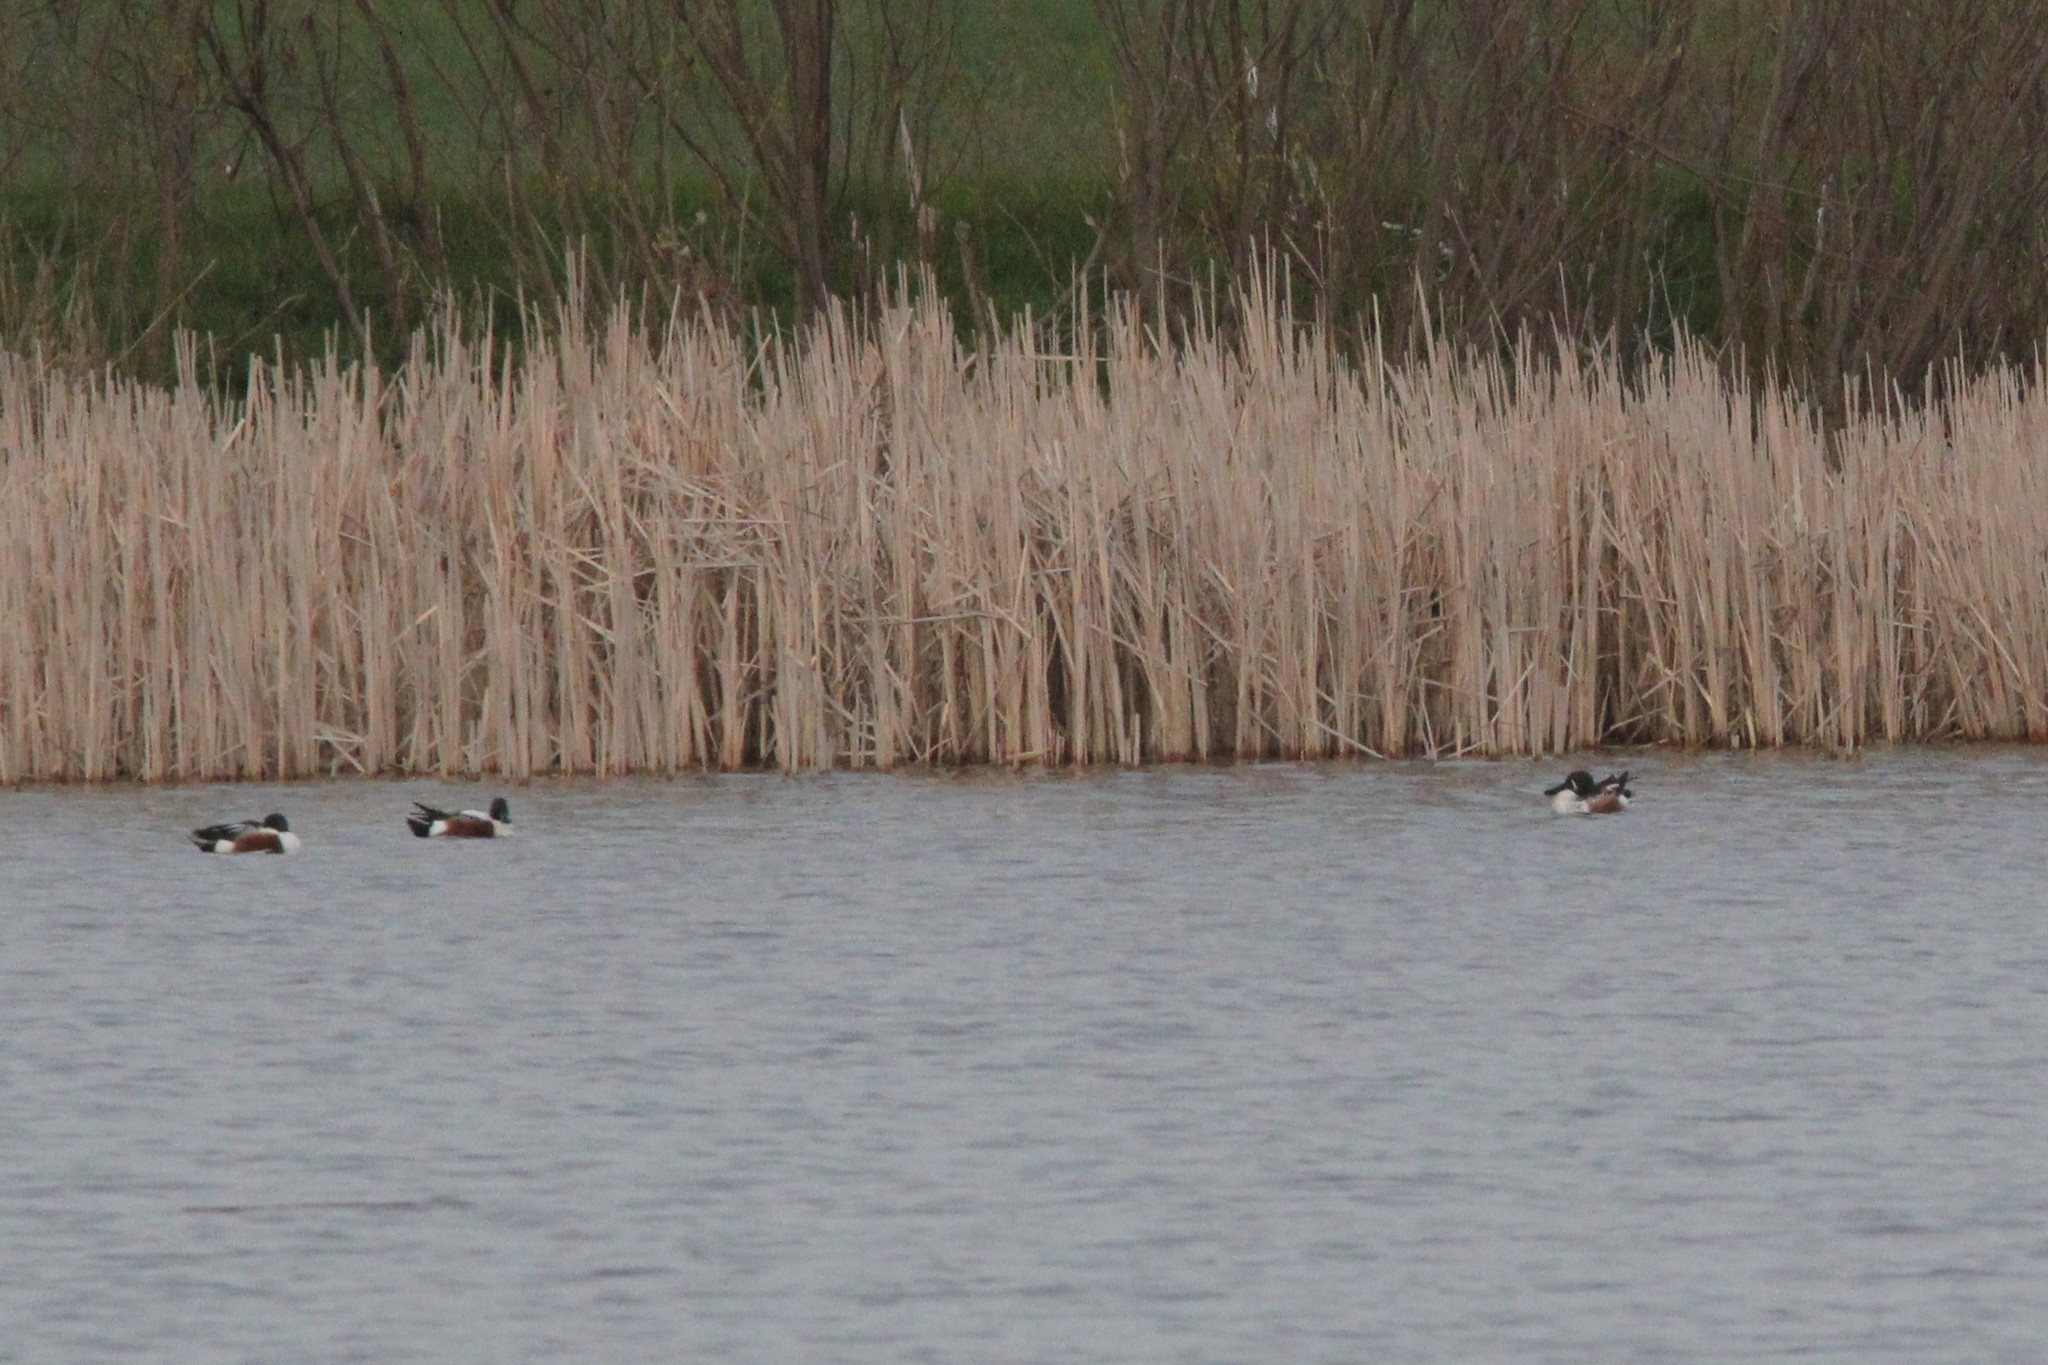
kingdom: Animalia
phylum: Chordata
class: Aves
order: Anseriformes
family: Anatidae
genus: Spatula
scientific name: Spatula clypeata
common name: Northern shoveler
